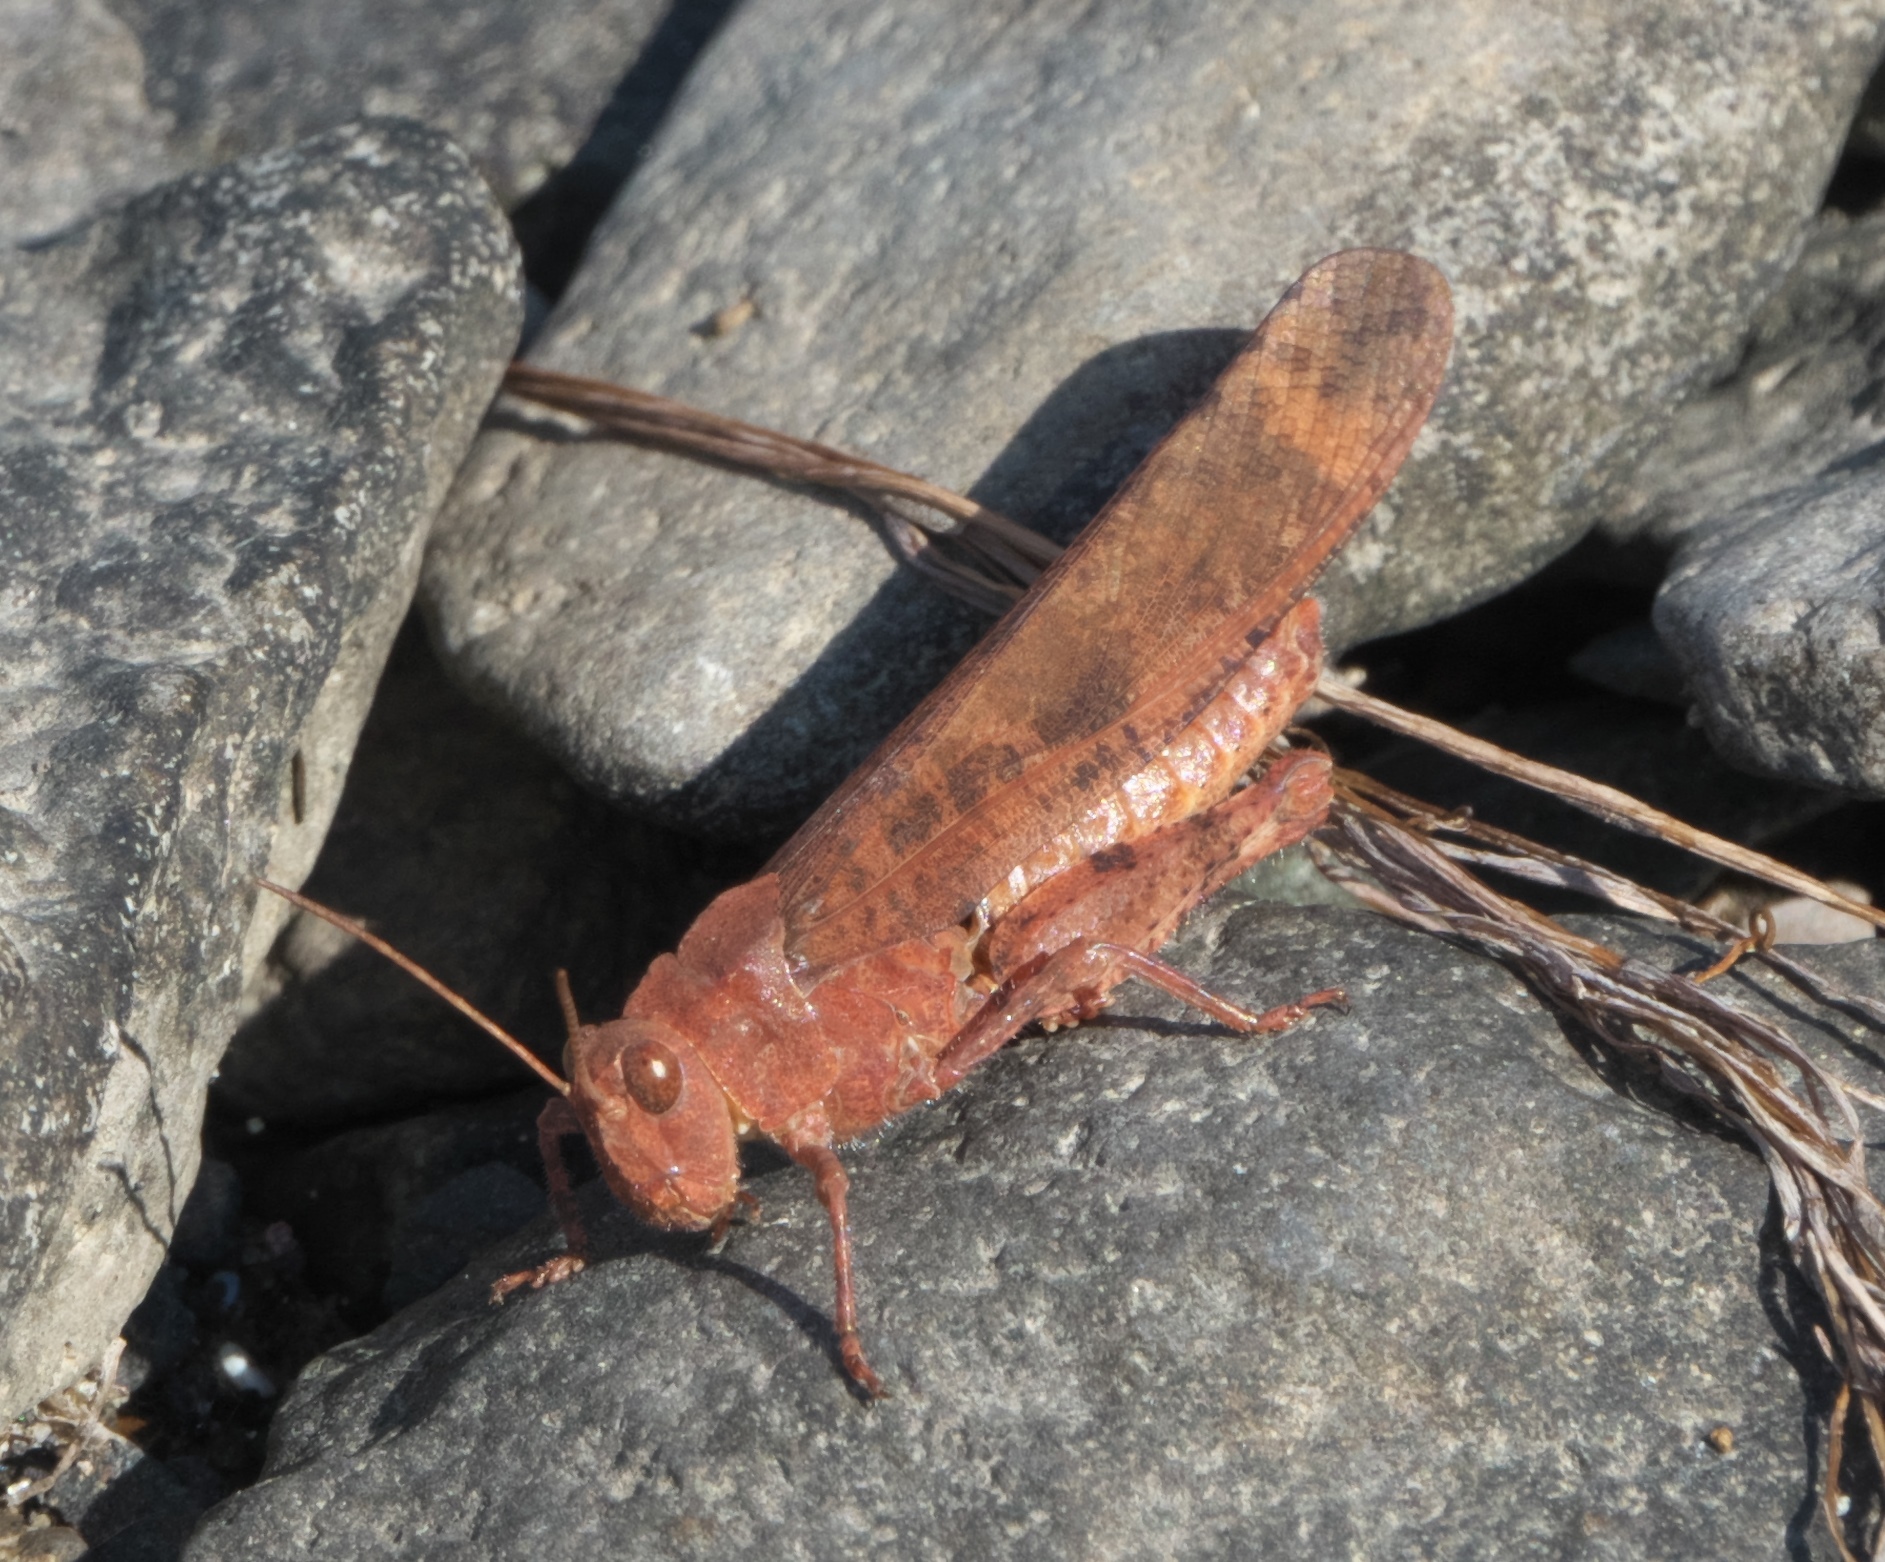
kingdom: Animalia
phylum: Arthropoda
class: Insecta
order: Orthoptera
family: Acrididae
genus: Dissosteira
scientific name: Dissosteira carolina
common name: Carolina grasshopper
